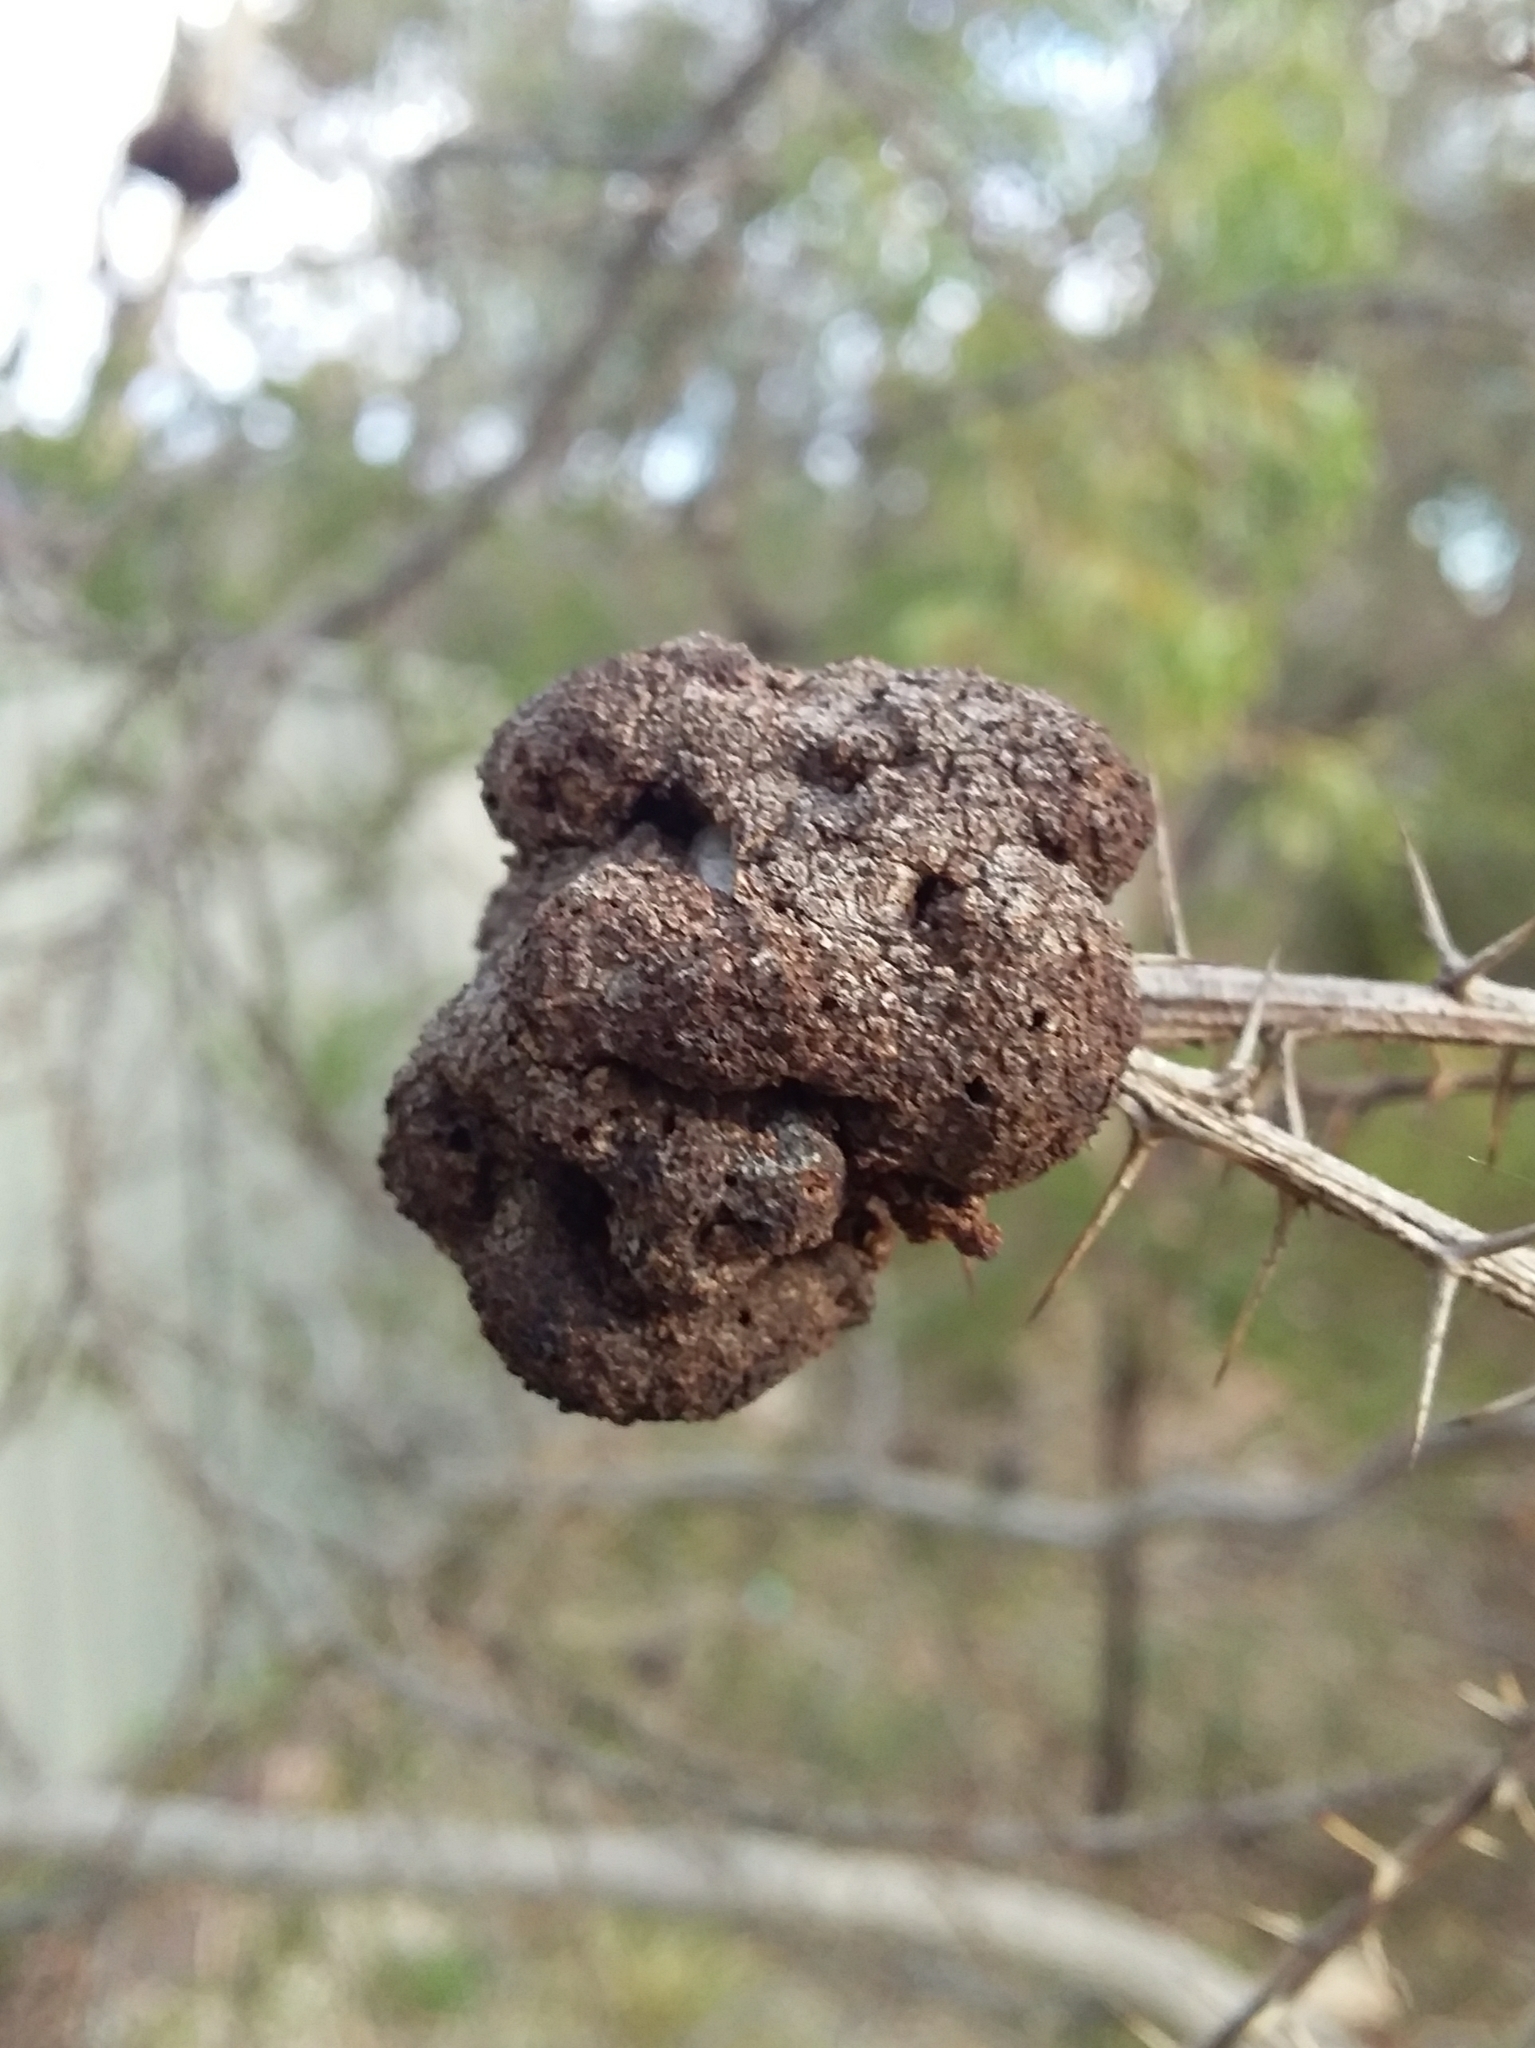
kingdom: Fungi
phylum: Basidiomycota
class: Pucciniomycetes
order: Pucciniales
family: Uromycladiaceae
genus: Uromycladium
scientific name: Uromycladium paradoxae
